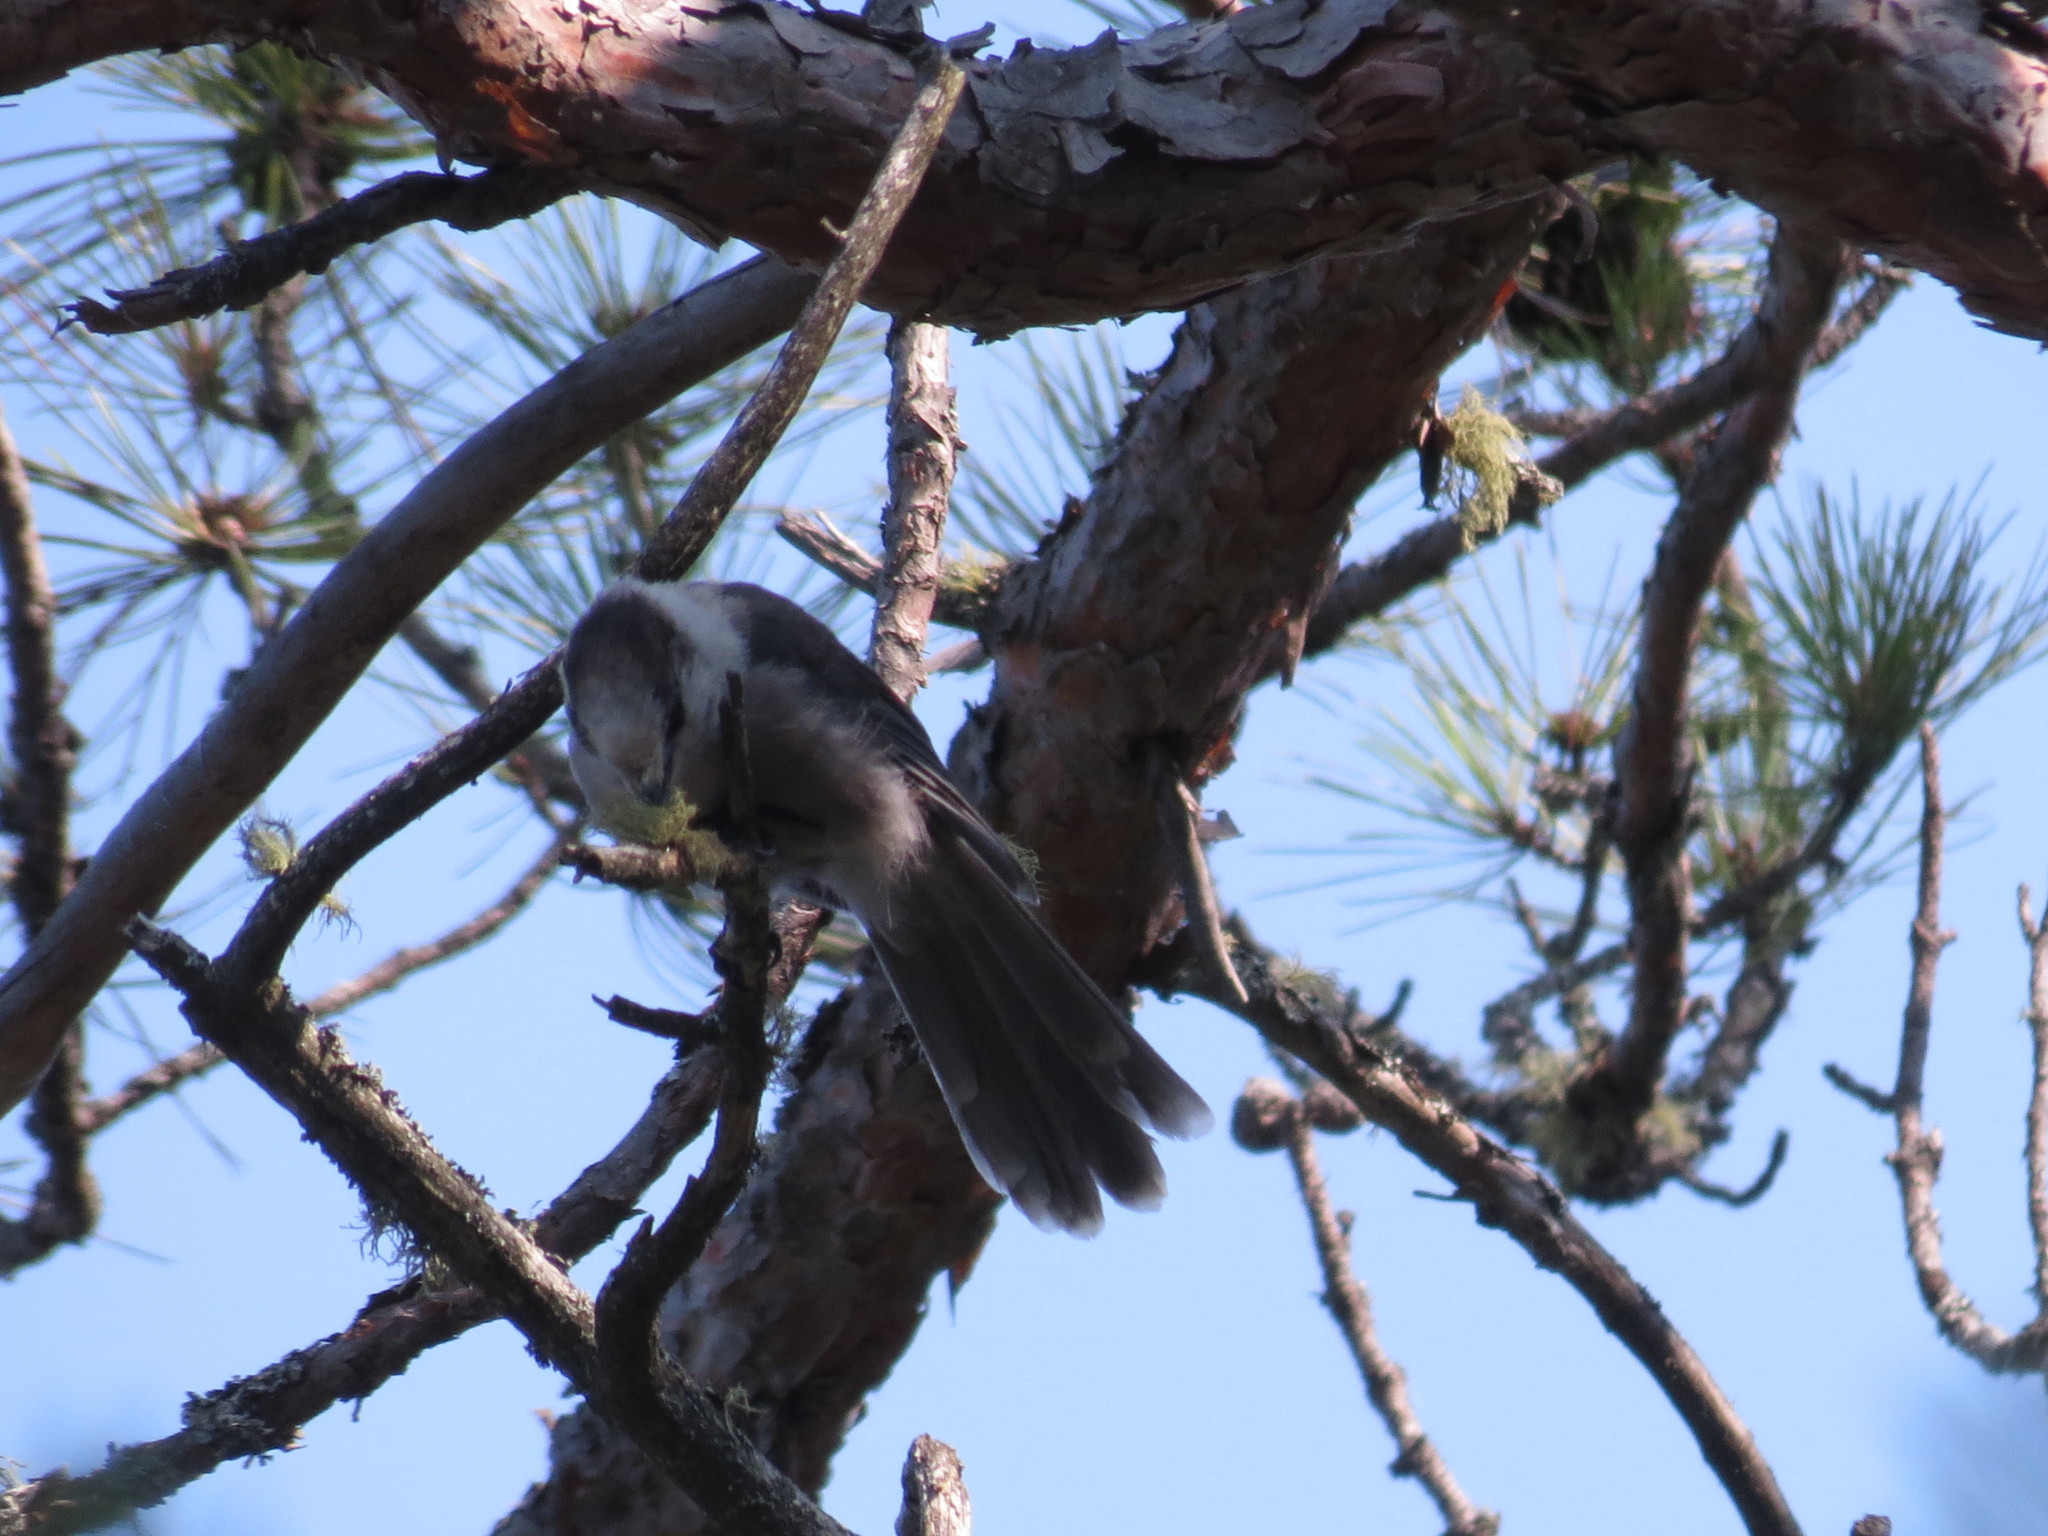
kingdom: Animalia
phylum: Chordata
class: Aves
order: Passeriformes
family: Corvidae
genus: Perisoreus
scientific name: Perisoreus canadensis
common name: Gray jay
